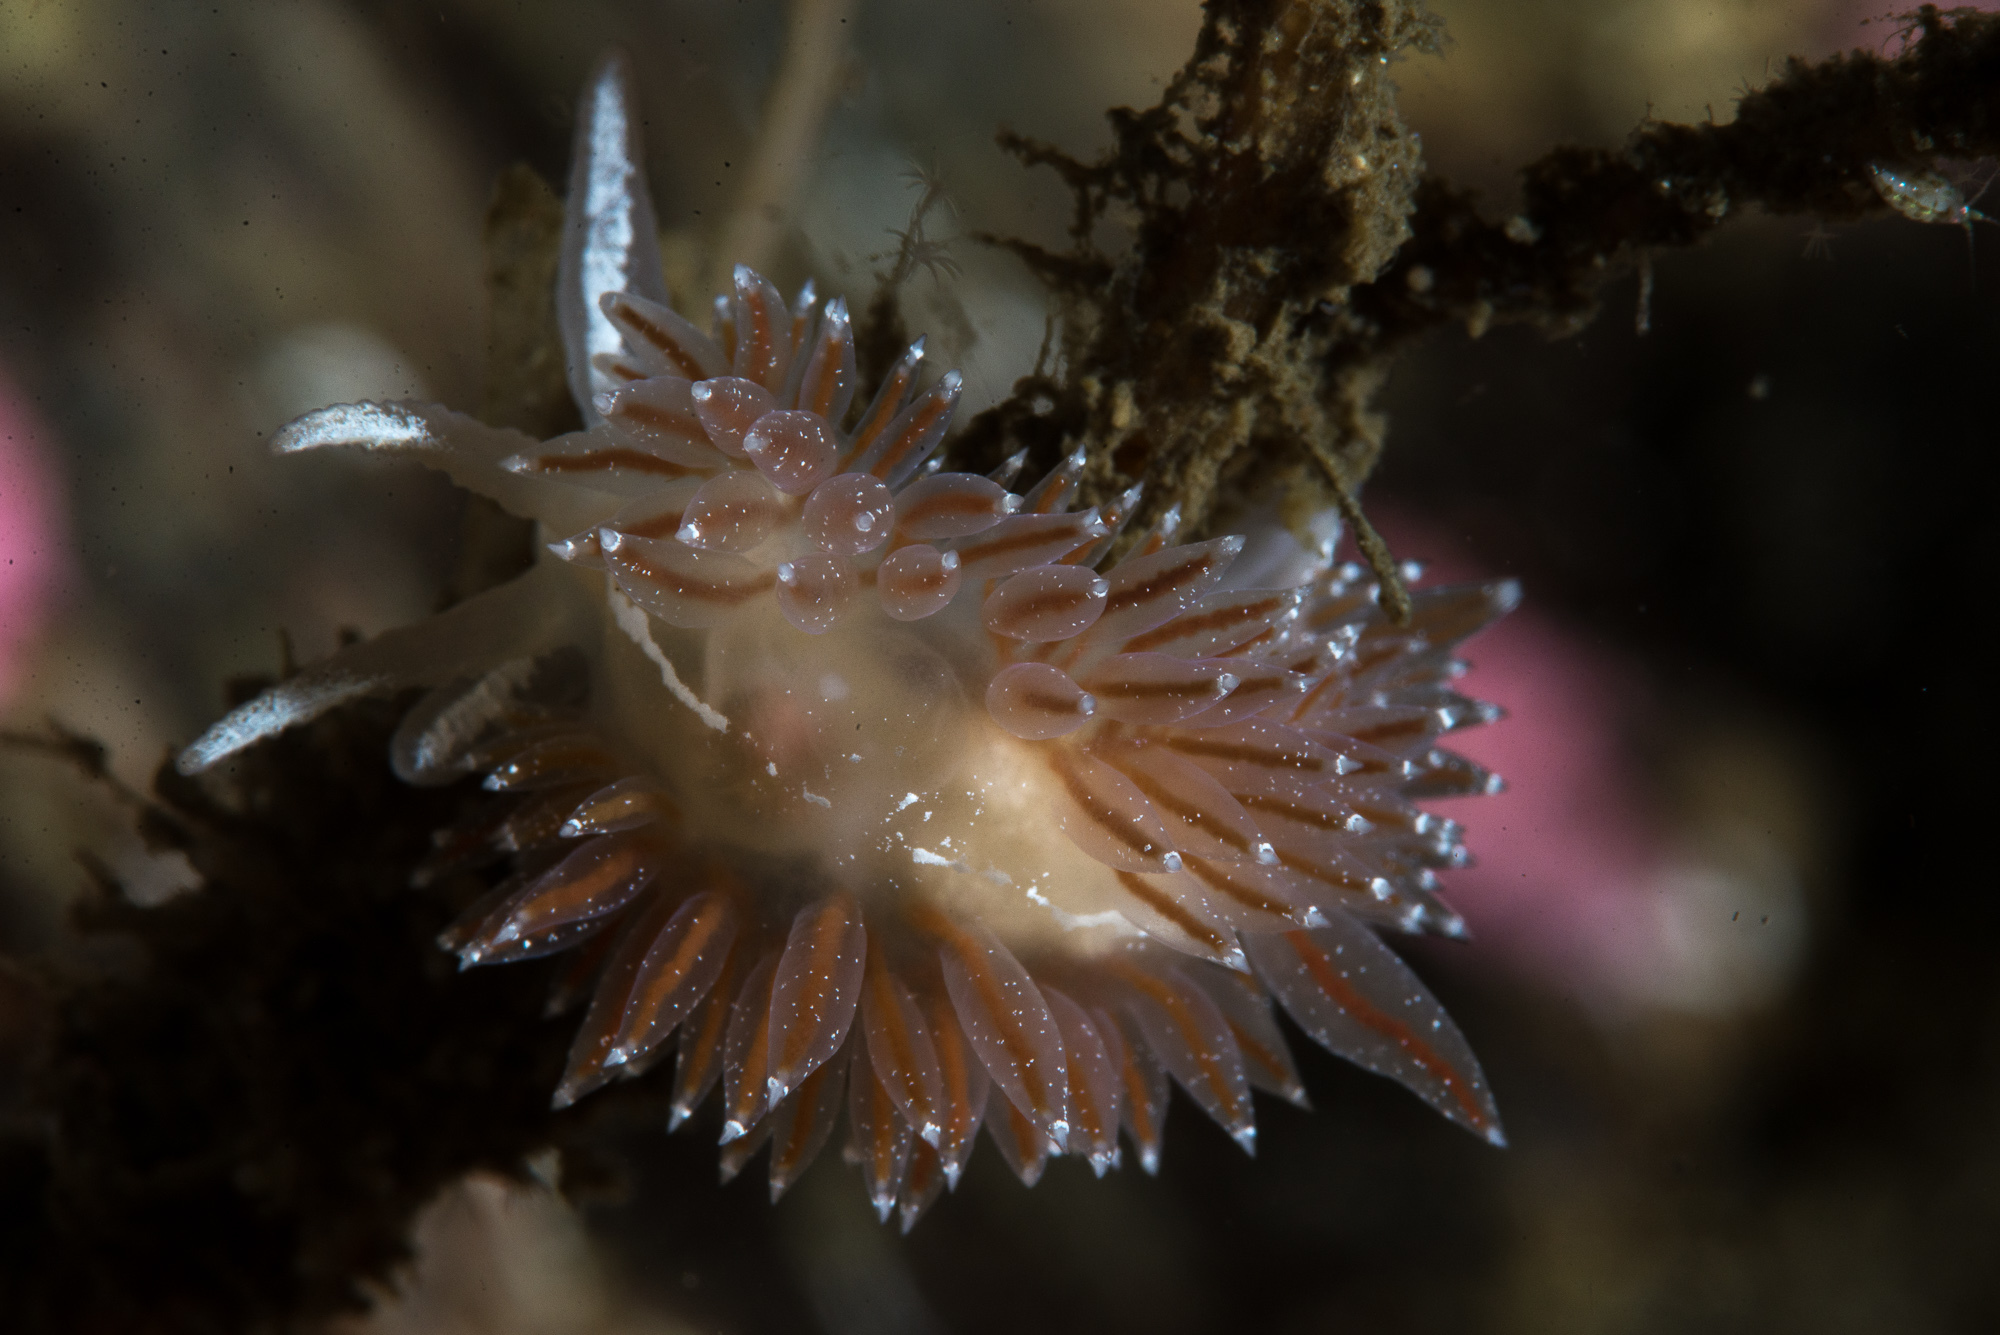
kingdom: Animalia
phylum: Mollusca
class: Gastropoda
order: Nudibranchia
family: Coryphellidae
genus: Coryphella
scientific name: Coryphella orjani
